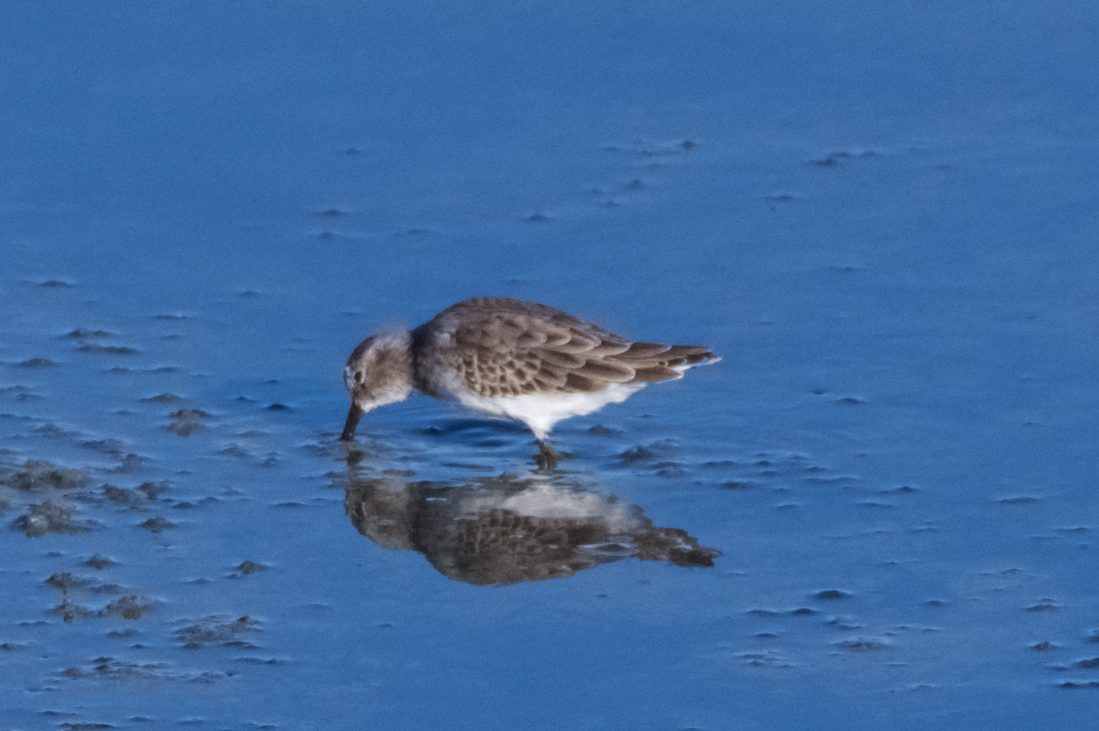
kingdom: Animalia
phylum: Chordata
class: Aves
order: Charadriiformes
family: Scolopacidae
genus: Calidris
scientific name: Calidris minutilla
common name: Least sandpiper
